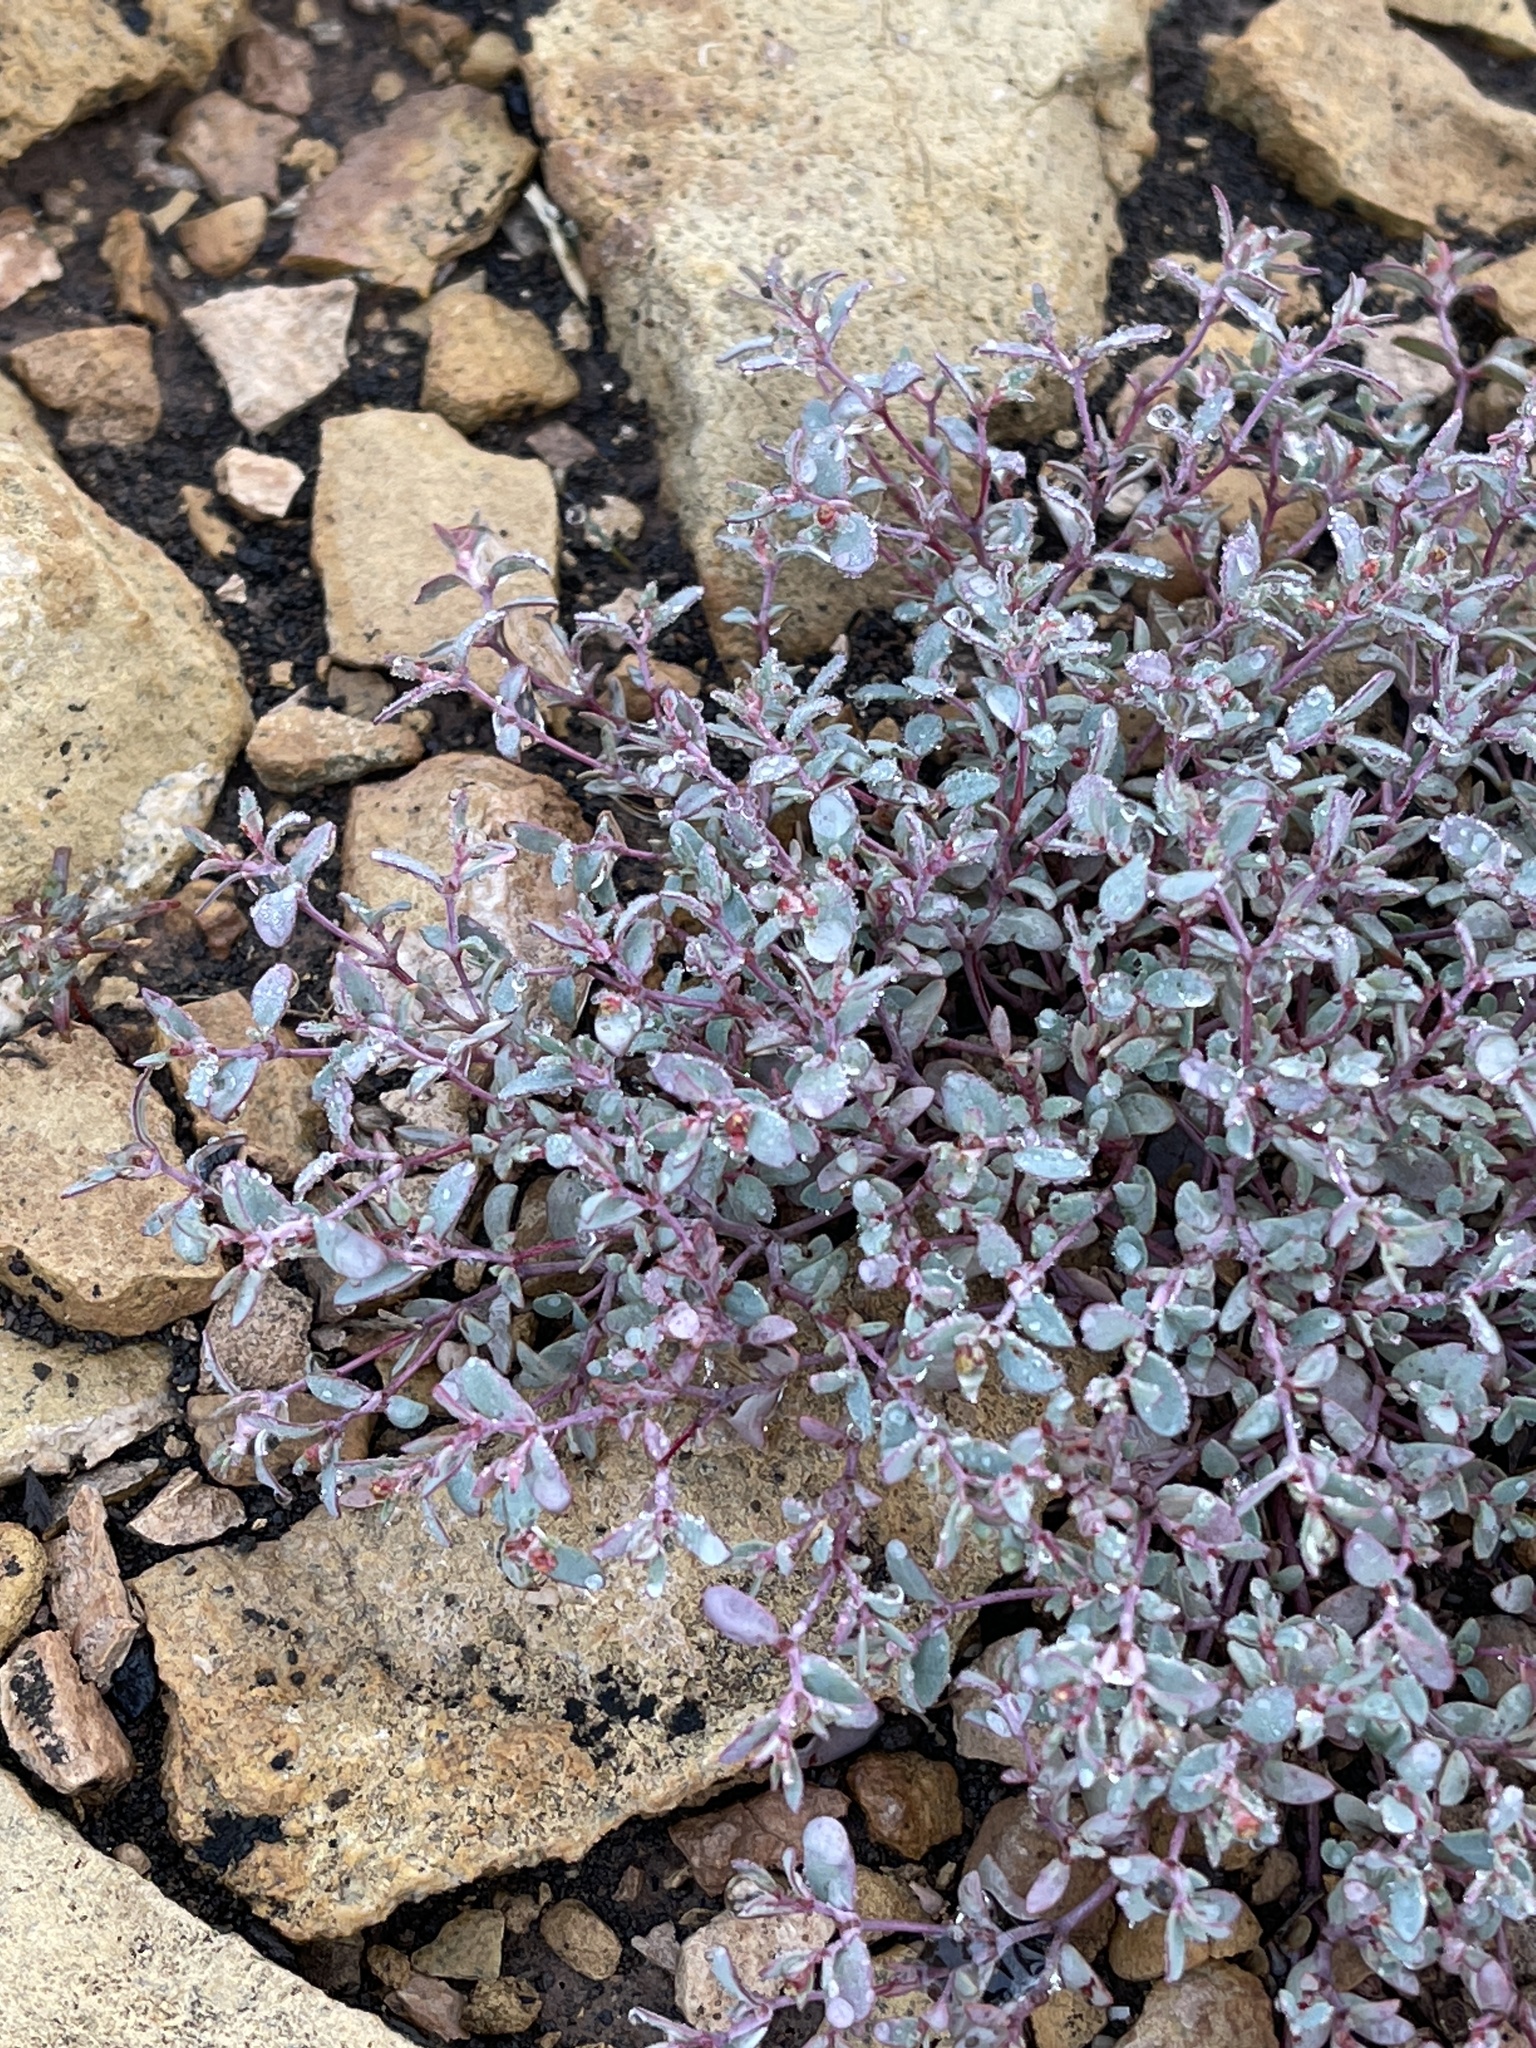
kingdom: Plantae
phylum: Tracheophyta
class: Magnoliopsida
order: Malpighiales
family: Euphorbiaceae
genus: Euphorbia
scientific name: Euphorbia fendleri
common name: Fendler's euphorbia
